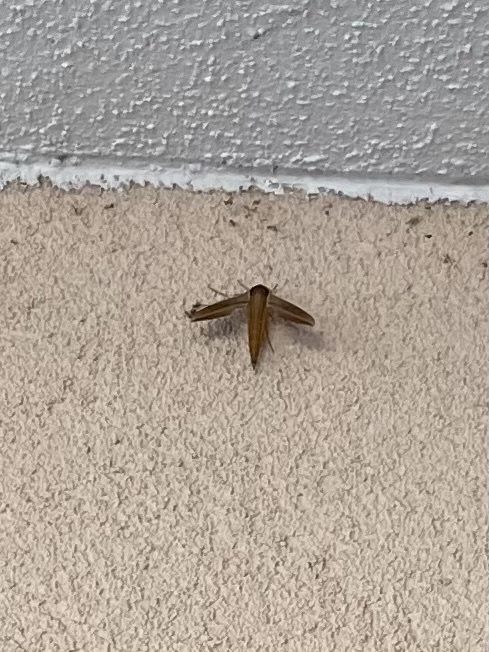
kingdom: Animalia
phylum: Arthropoda
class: Insecta
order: Lepidoptera
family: Sphingidae
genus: Xylophanes
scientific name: Xylophanes tersa
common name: Tersa sphinx
